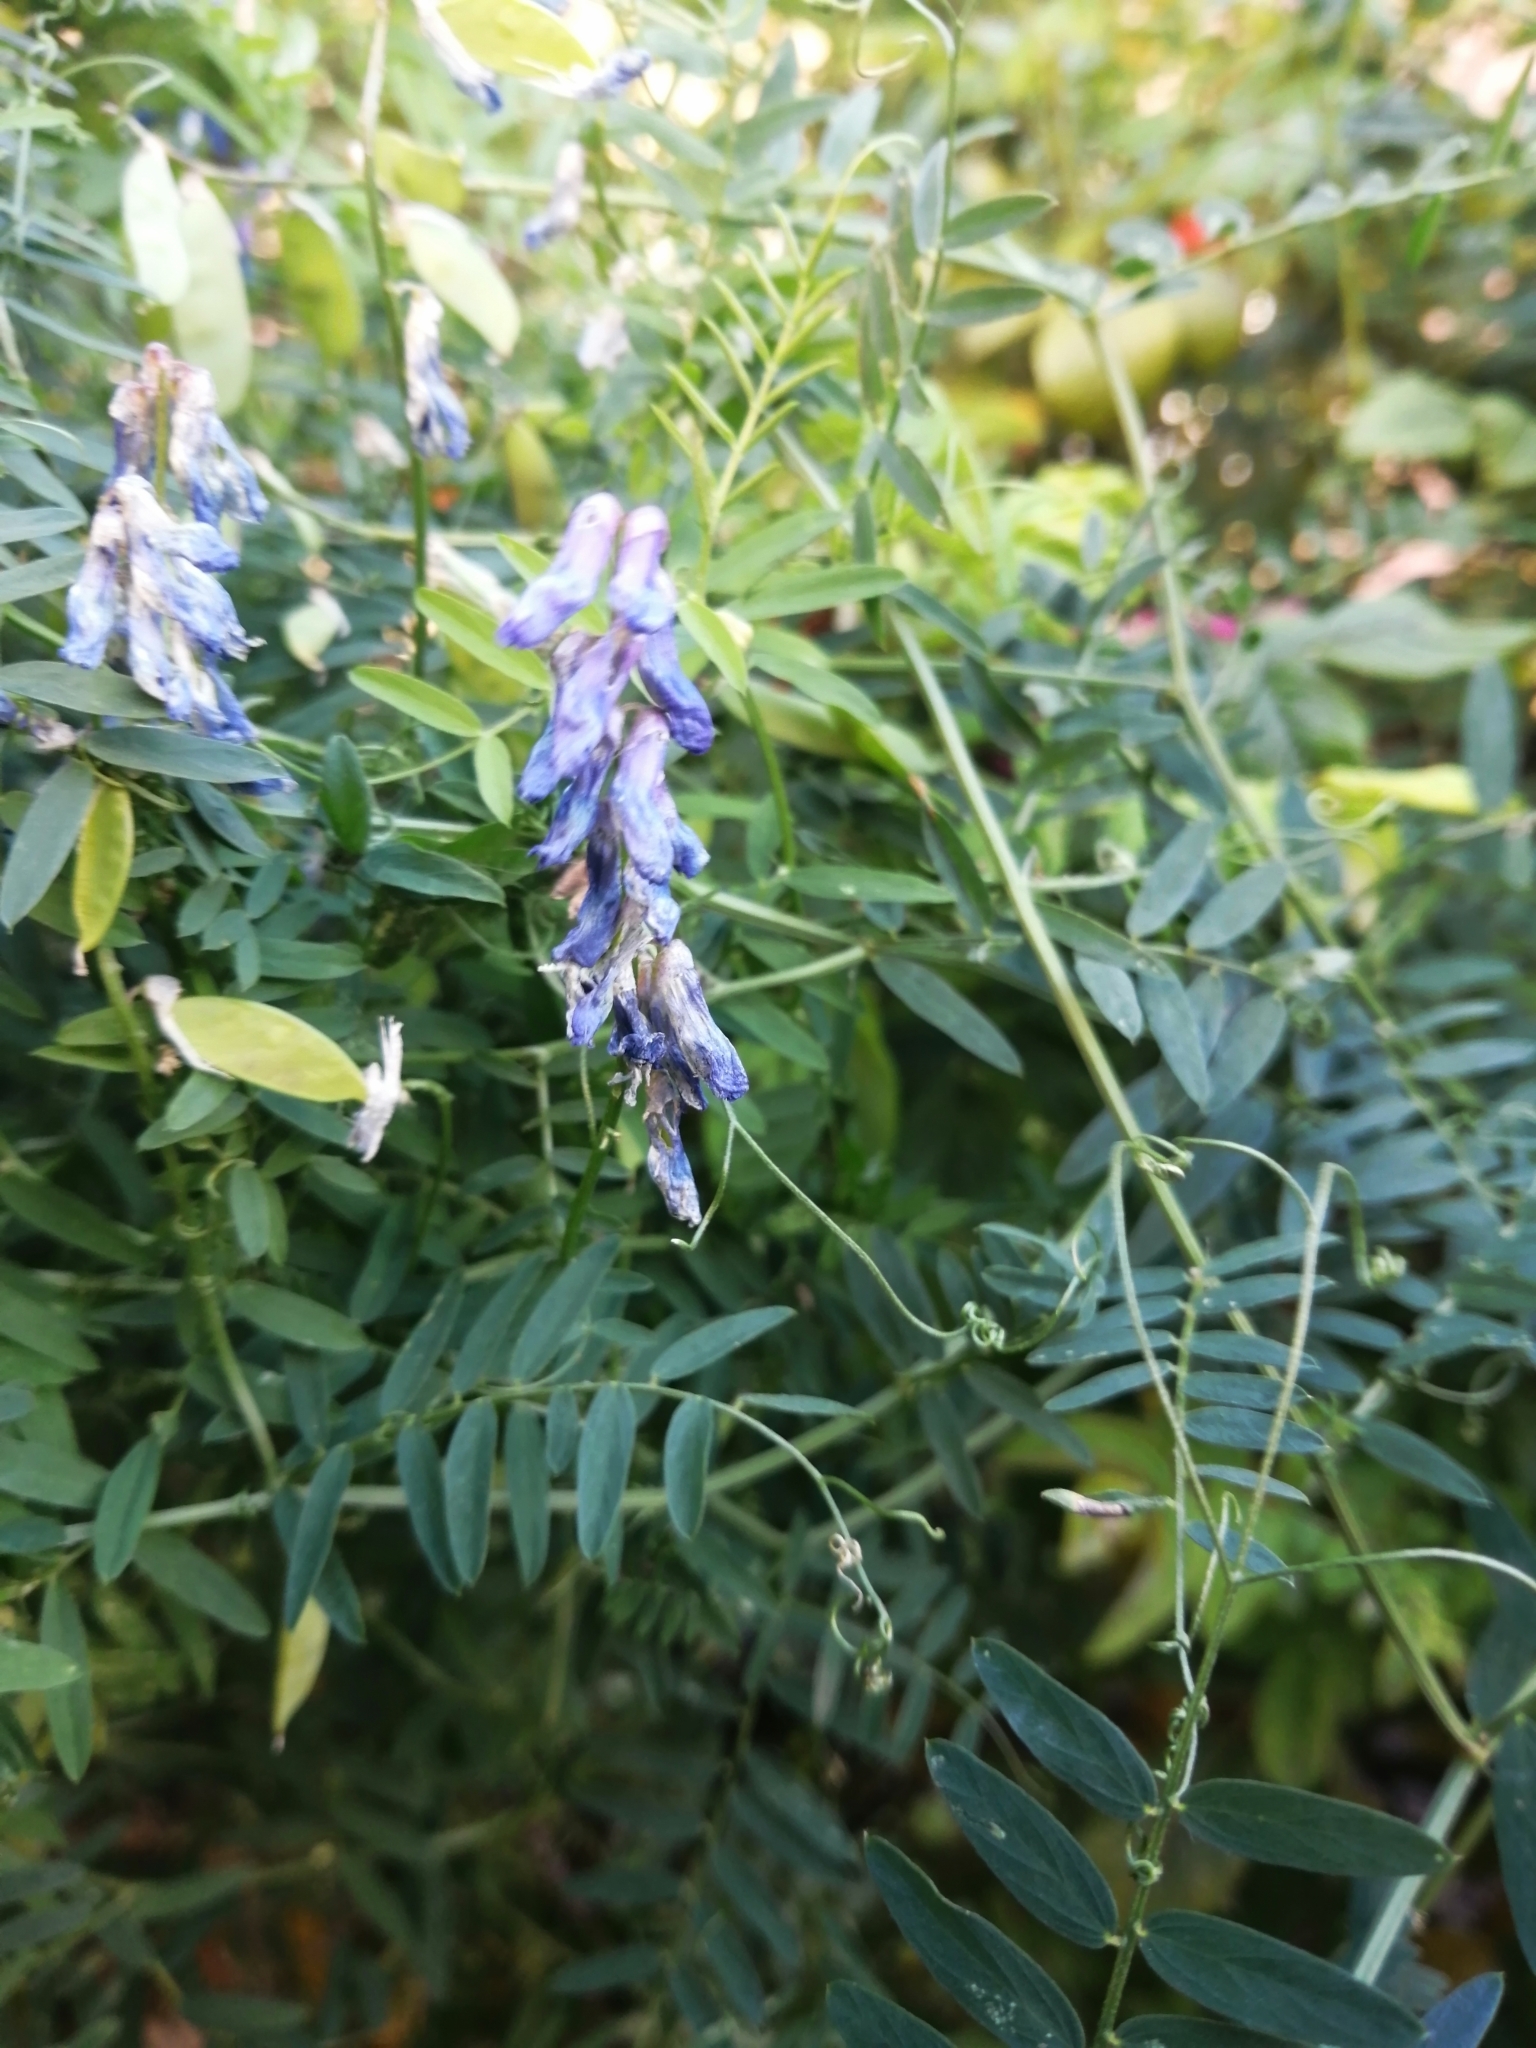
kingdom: Plantae
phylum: Tracheophyta
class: Magnoliopsida
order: Fabales
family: Fabaceae
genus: Vicia
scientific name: Vicia cracca
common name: Bird vetch
